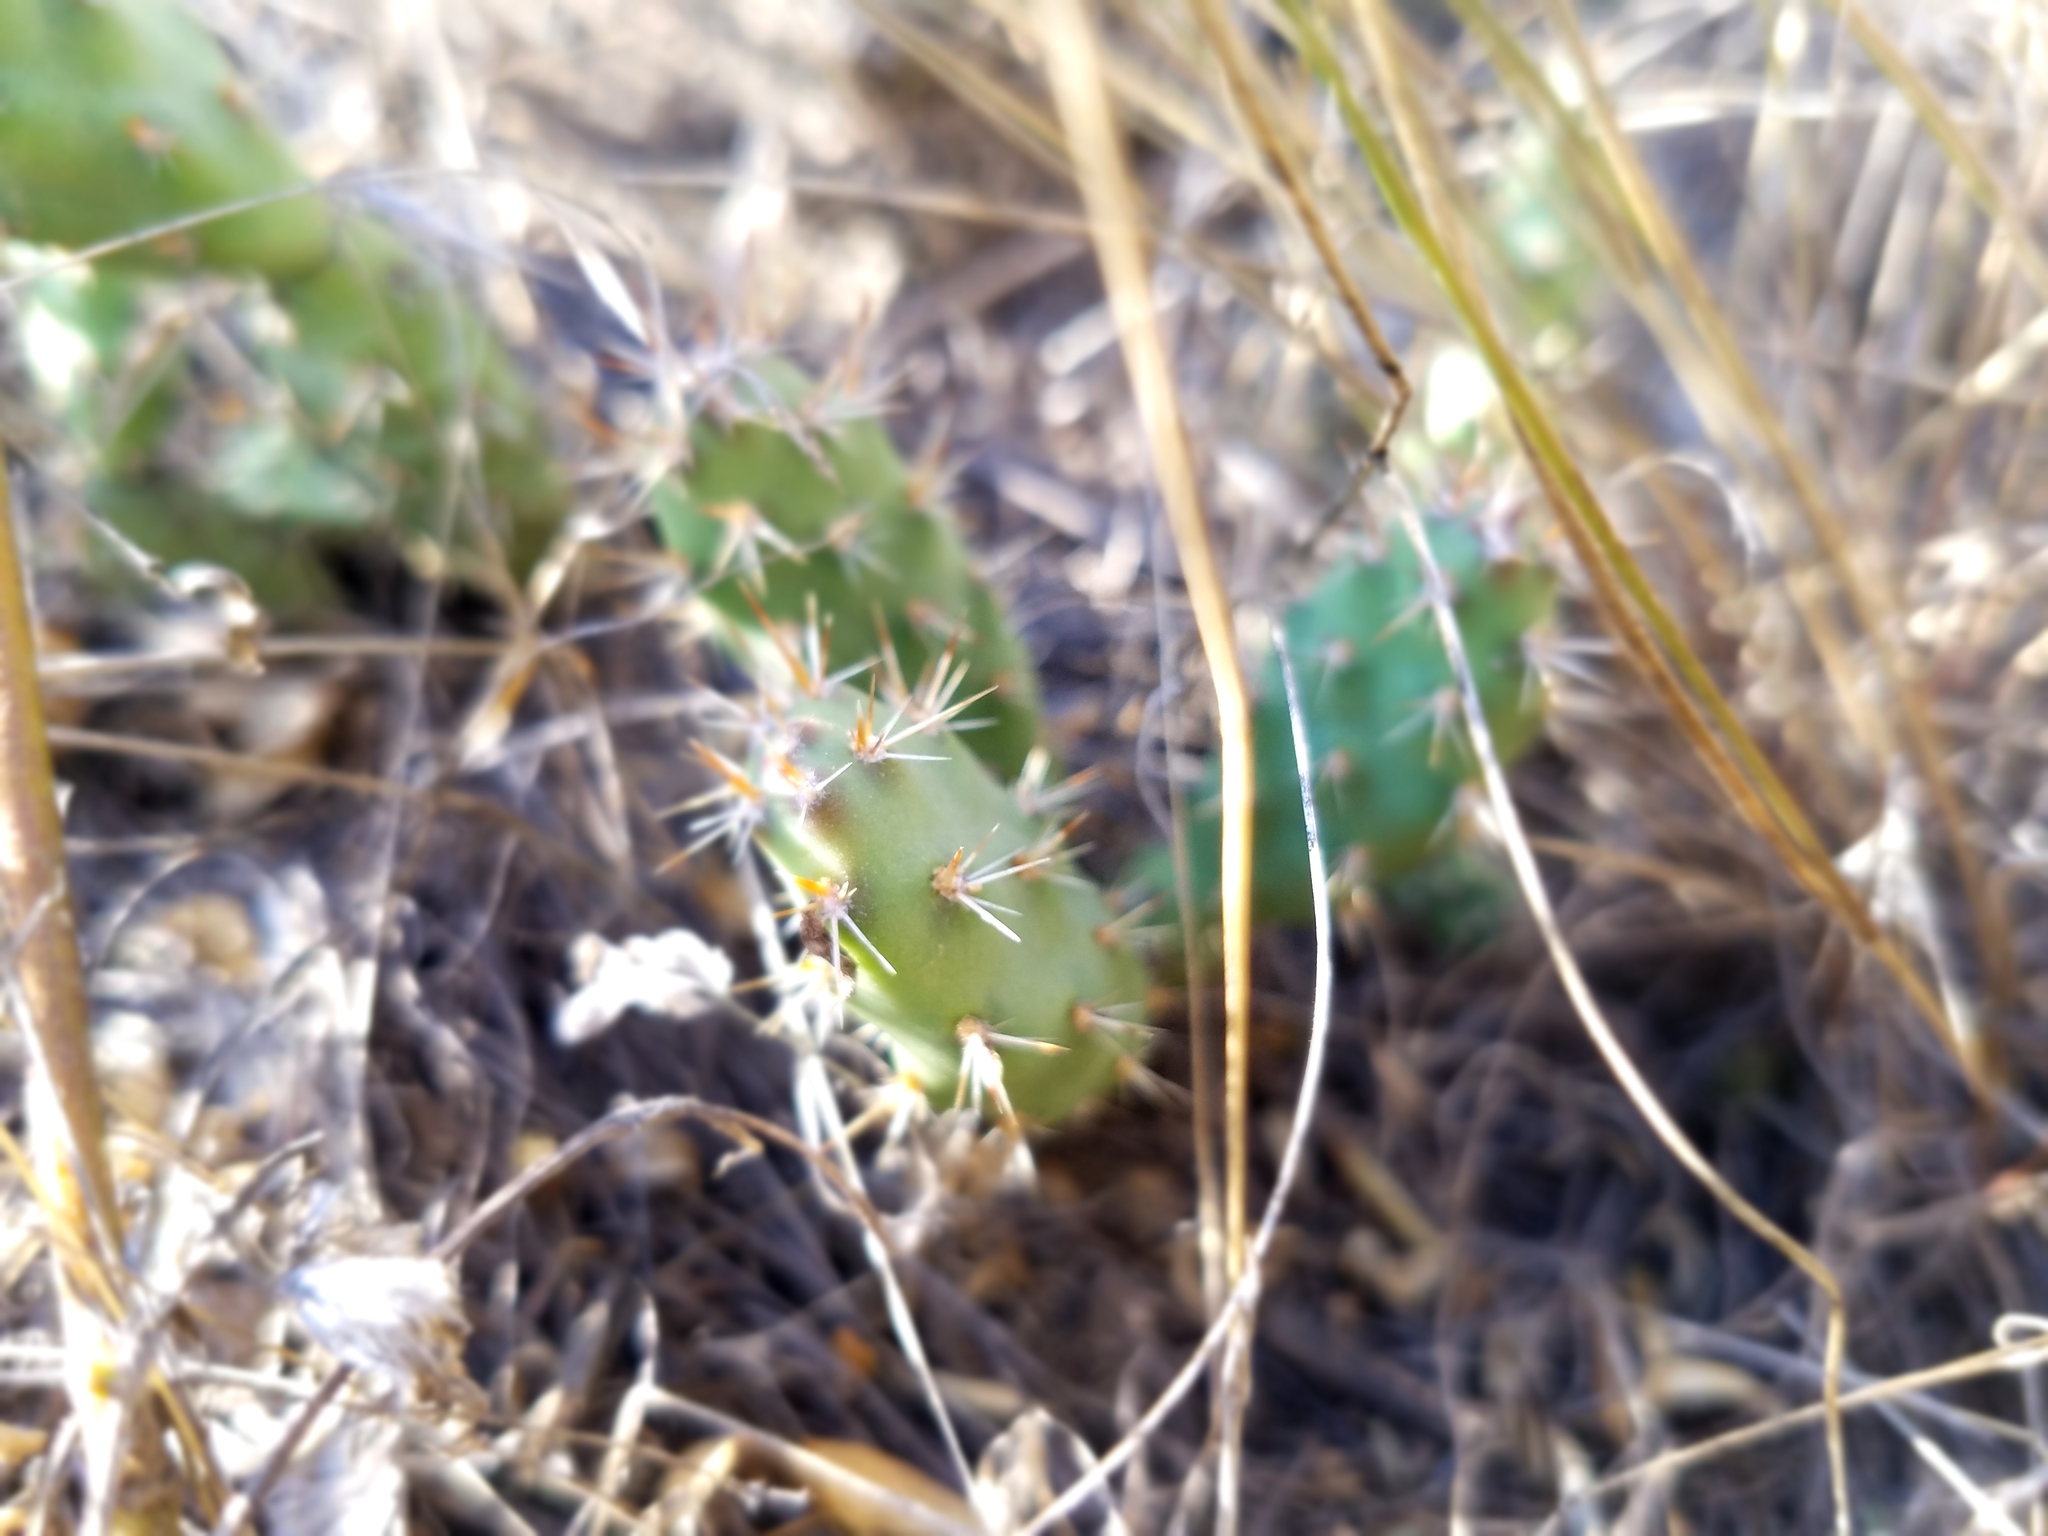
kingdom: Plantae
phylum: Tracheophyta
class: Magnoliopsida
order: Caryophyllales
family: Cactaceae
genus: Opuntia
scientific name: Opuntia fragilis
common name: Brittle cactus
